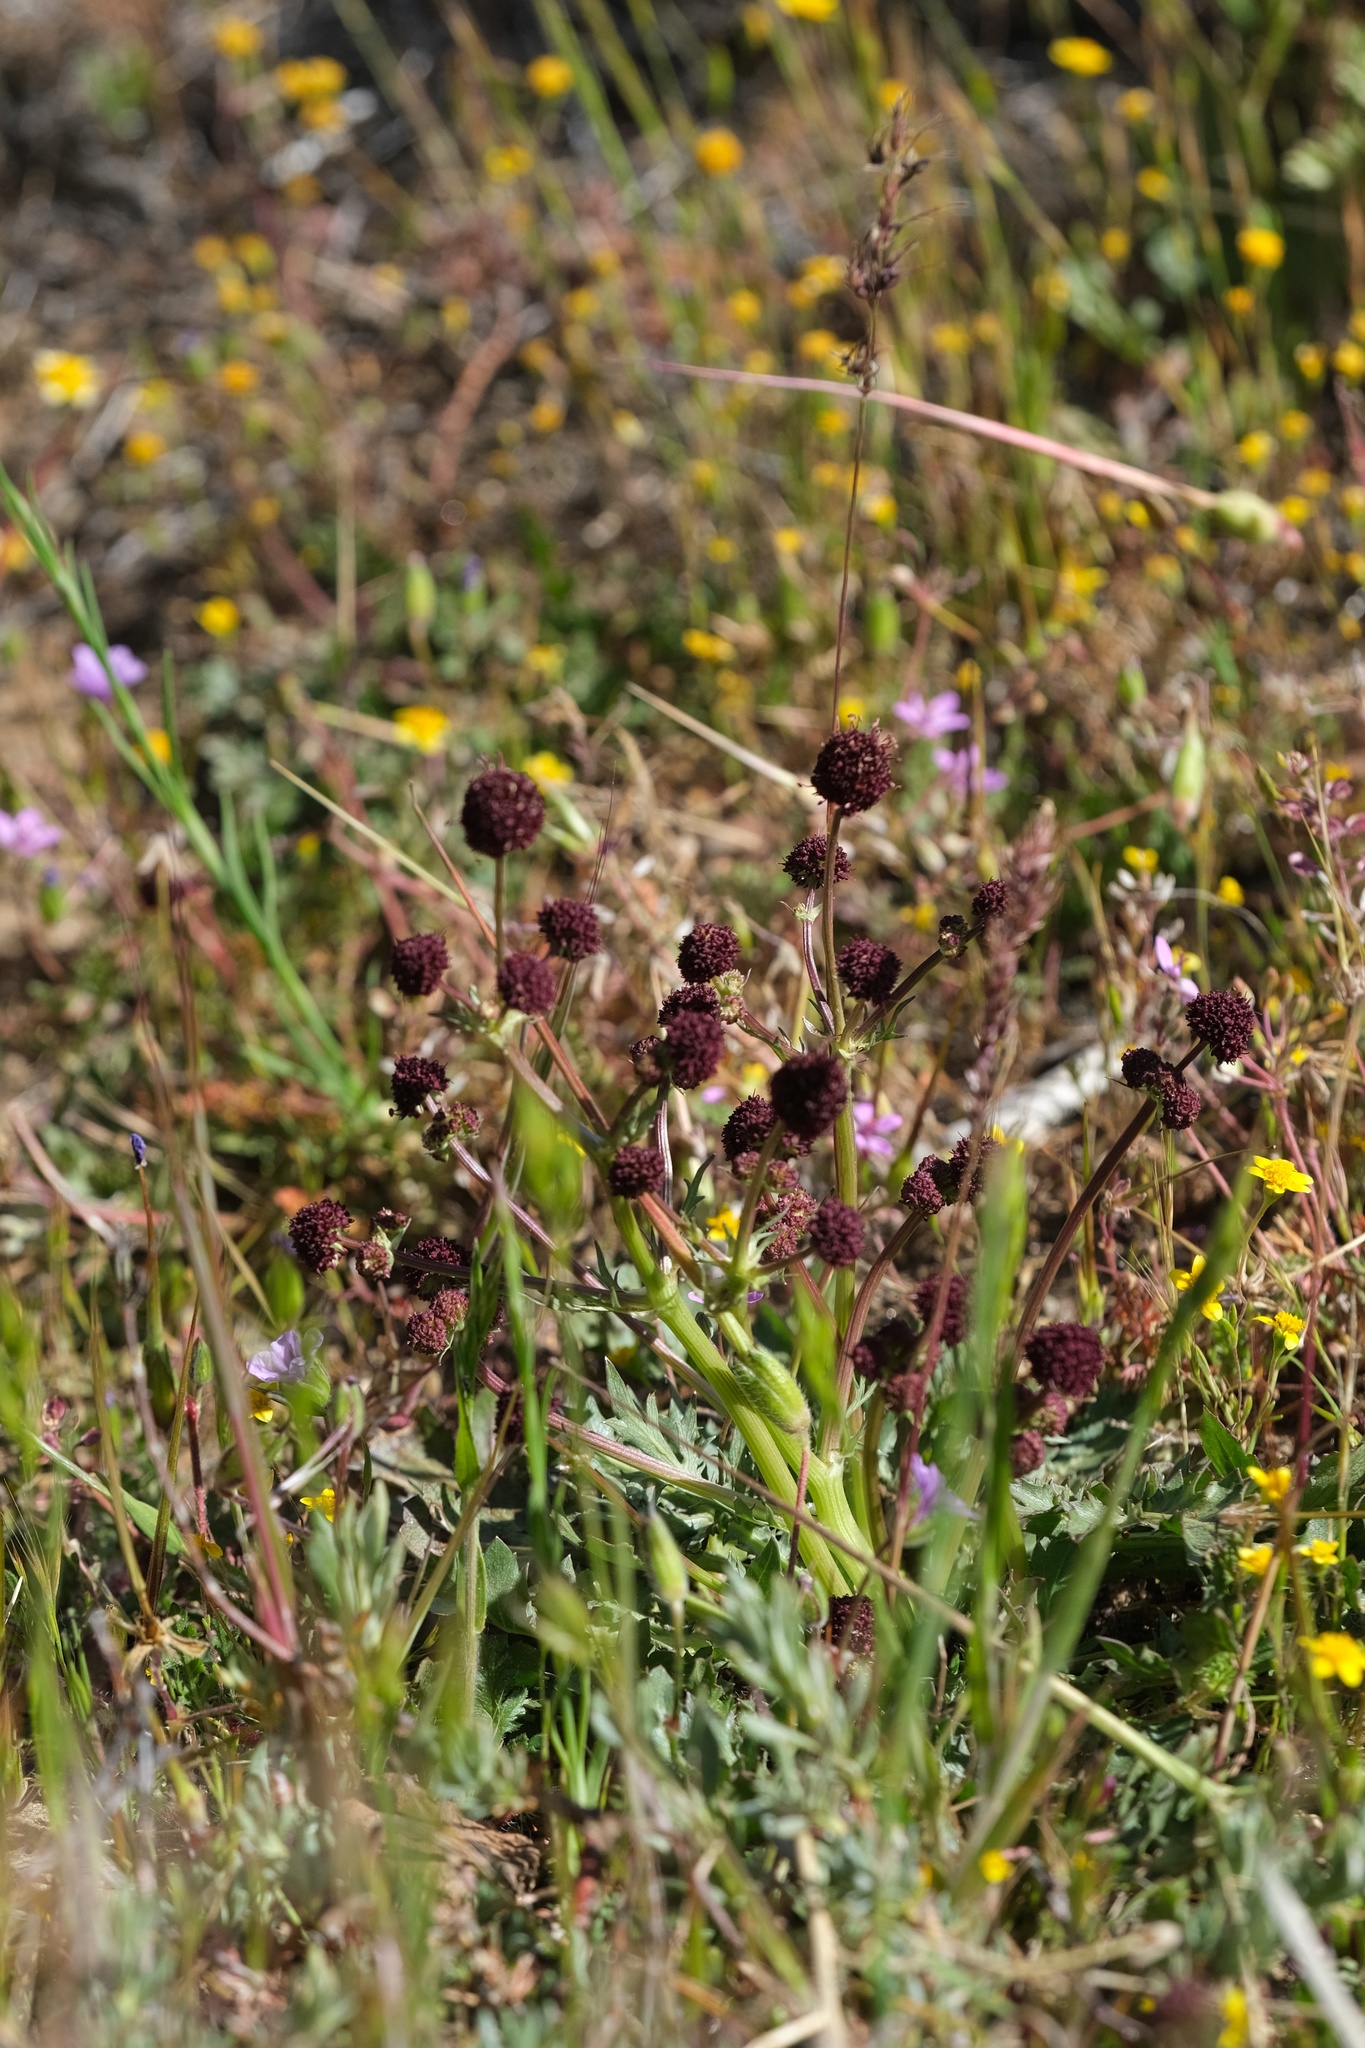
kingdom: Plantae
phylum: Tracheophyta
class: Magnoliopsida
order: Apiales
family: Apiaceae
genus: Sanicula
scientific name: Sanicula bipinnatifida
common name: Shoe-buttons
